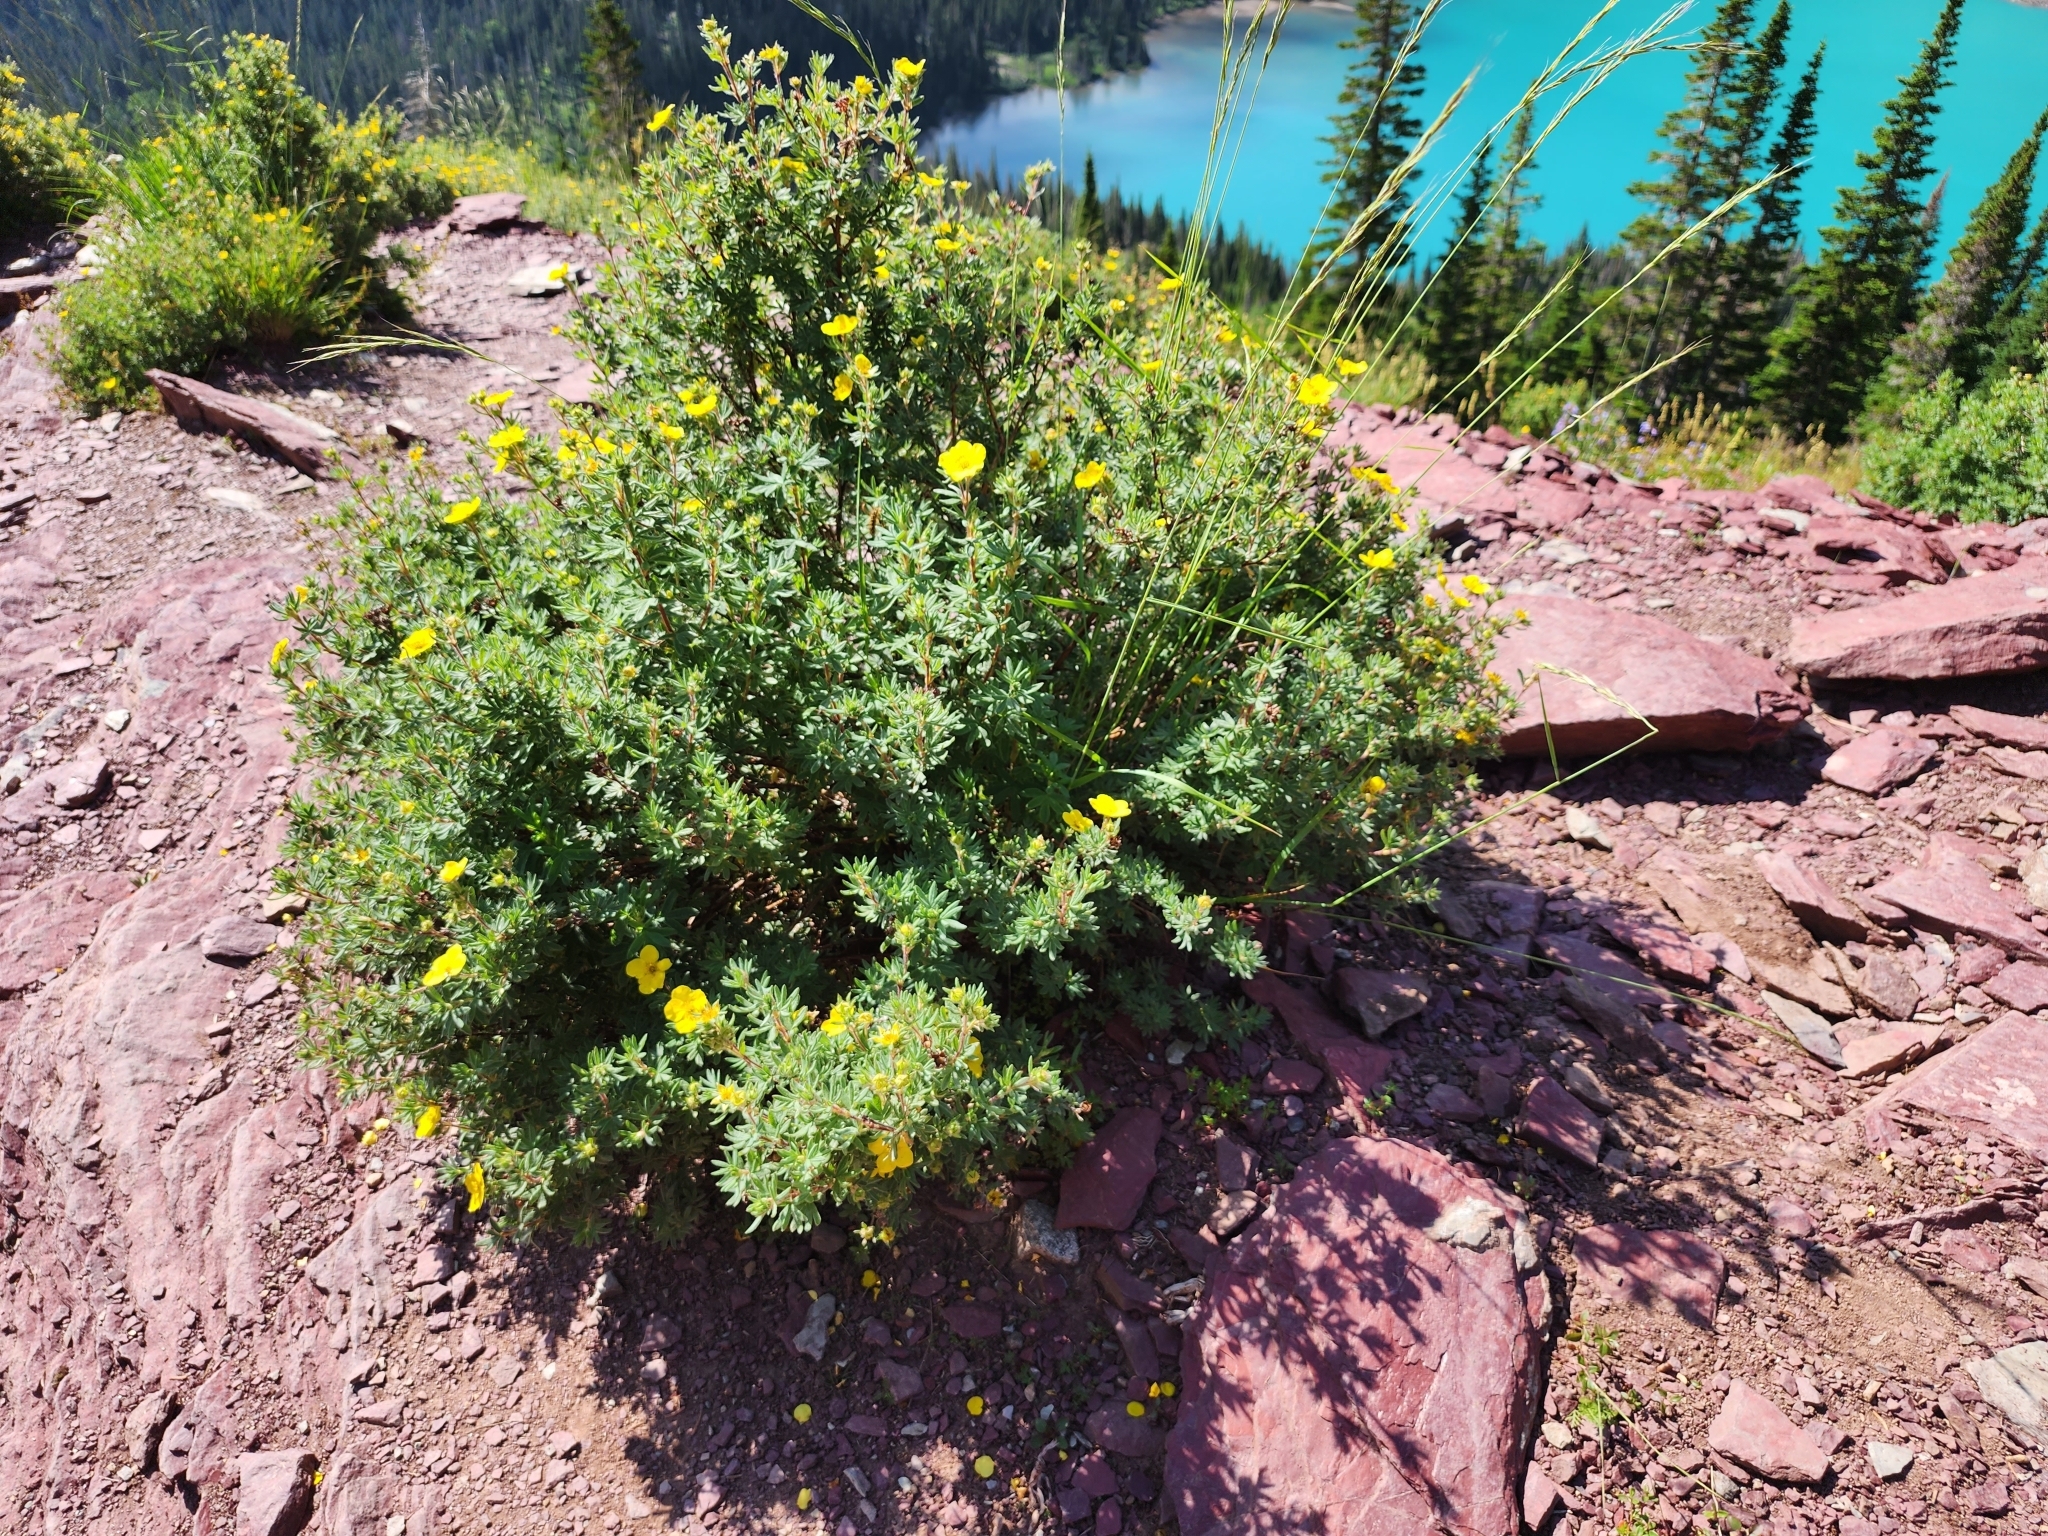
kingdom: Plantae
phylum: Tracheophyta
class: Magnoliopsida
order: Rosales
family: Rosaceae
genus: Dasiphora
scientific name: Dasiphora fruticosa
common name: Shrubby cinquefoil
